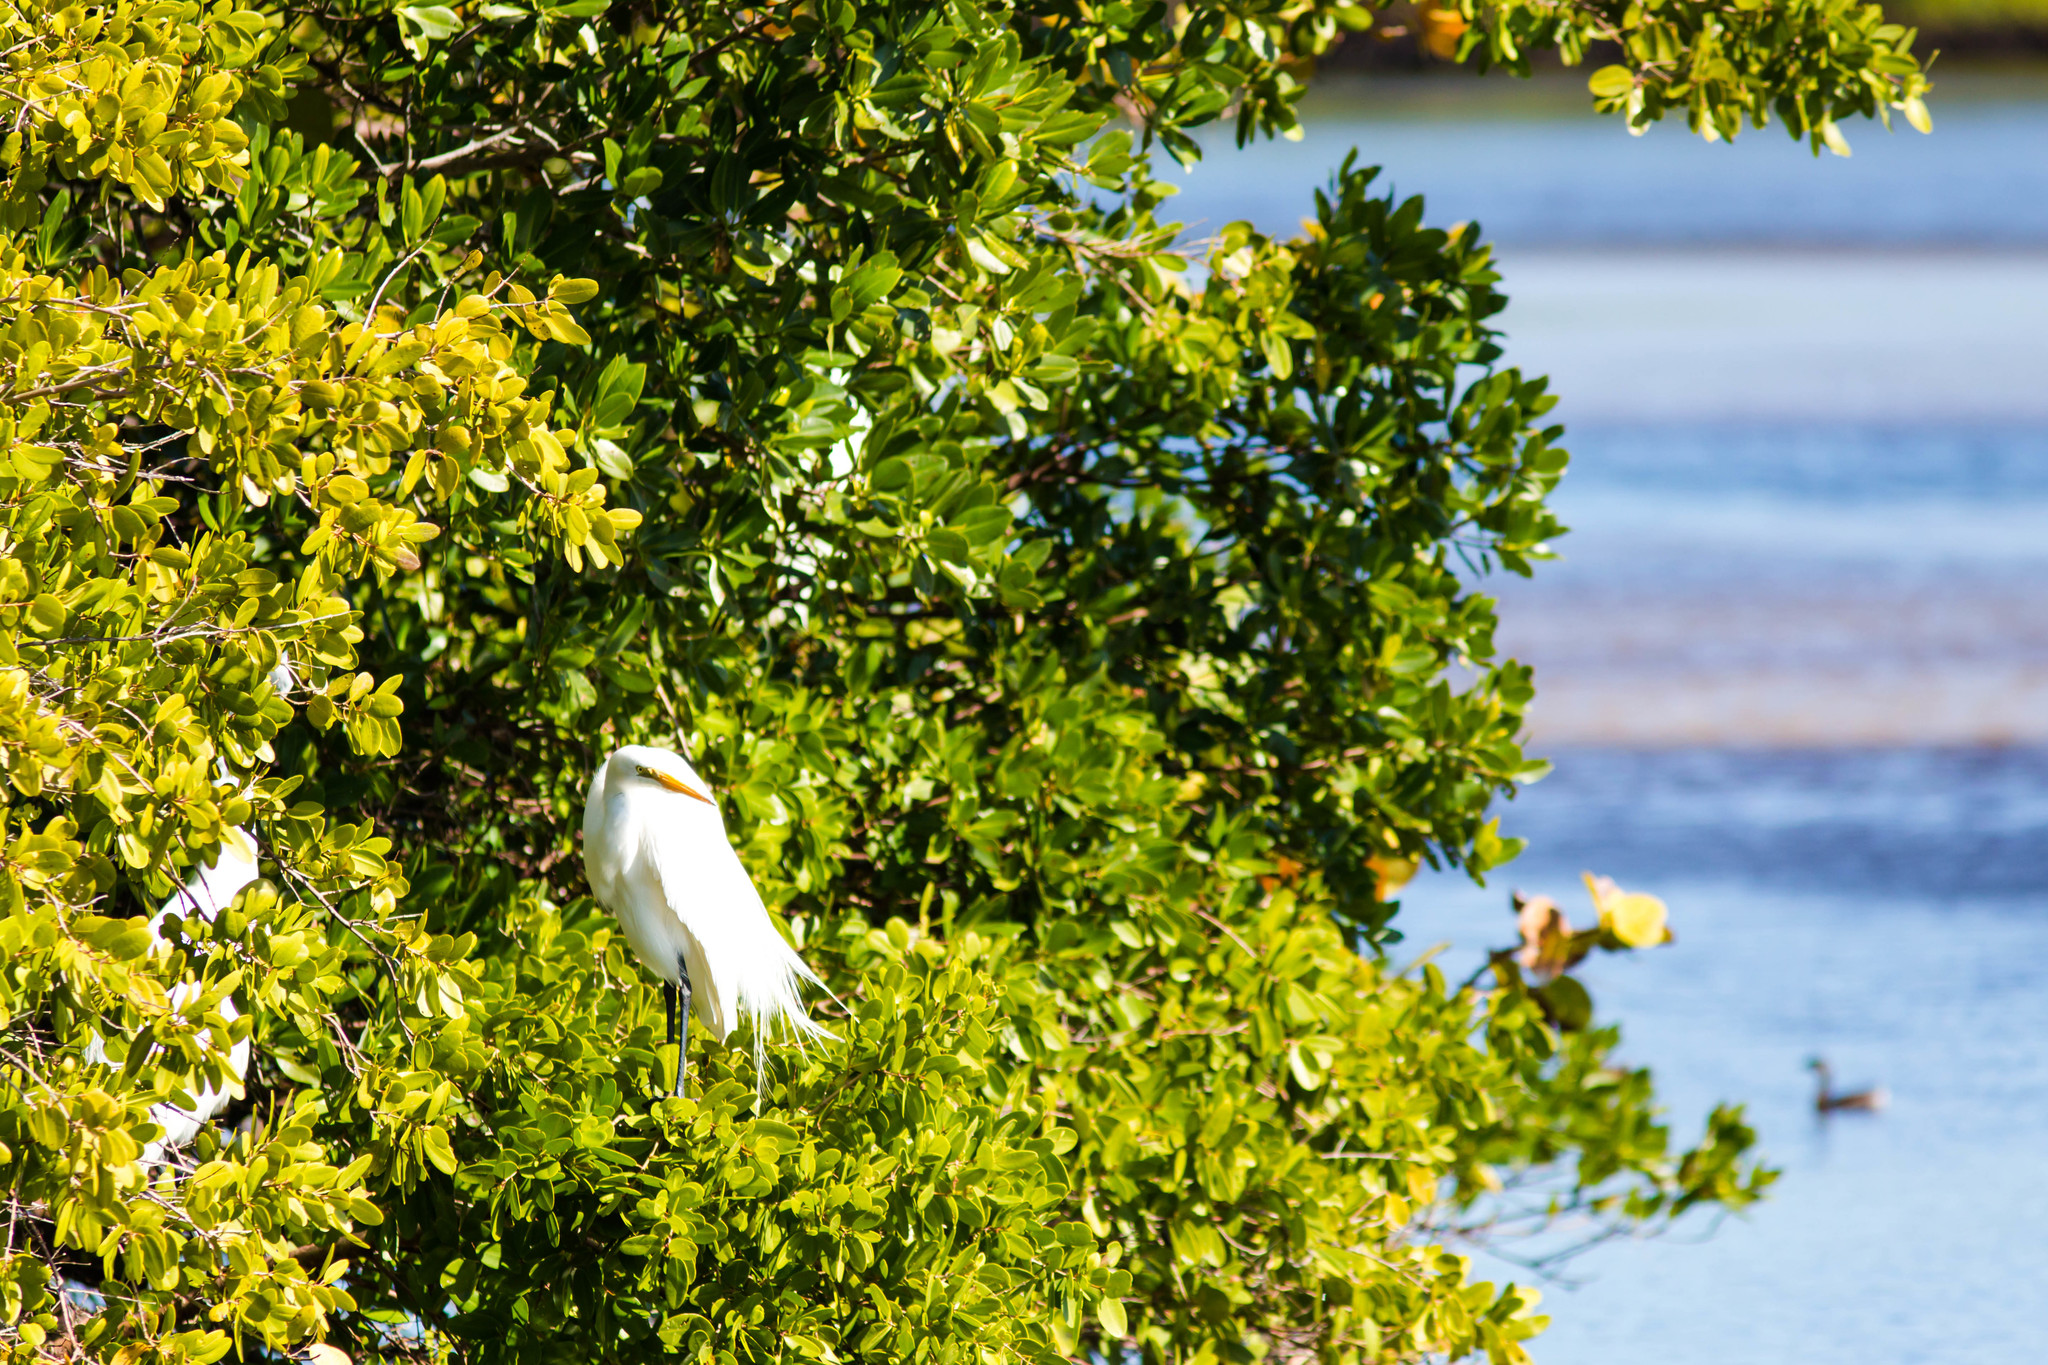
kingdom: Animalia
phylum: Chordata
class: Aves
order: Pelecaniformes
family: Ardeidae
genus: Ardea
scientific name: Ardea alba
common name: Great egret
